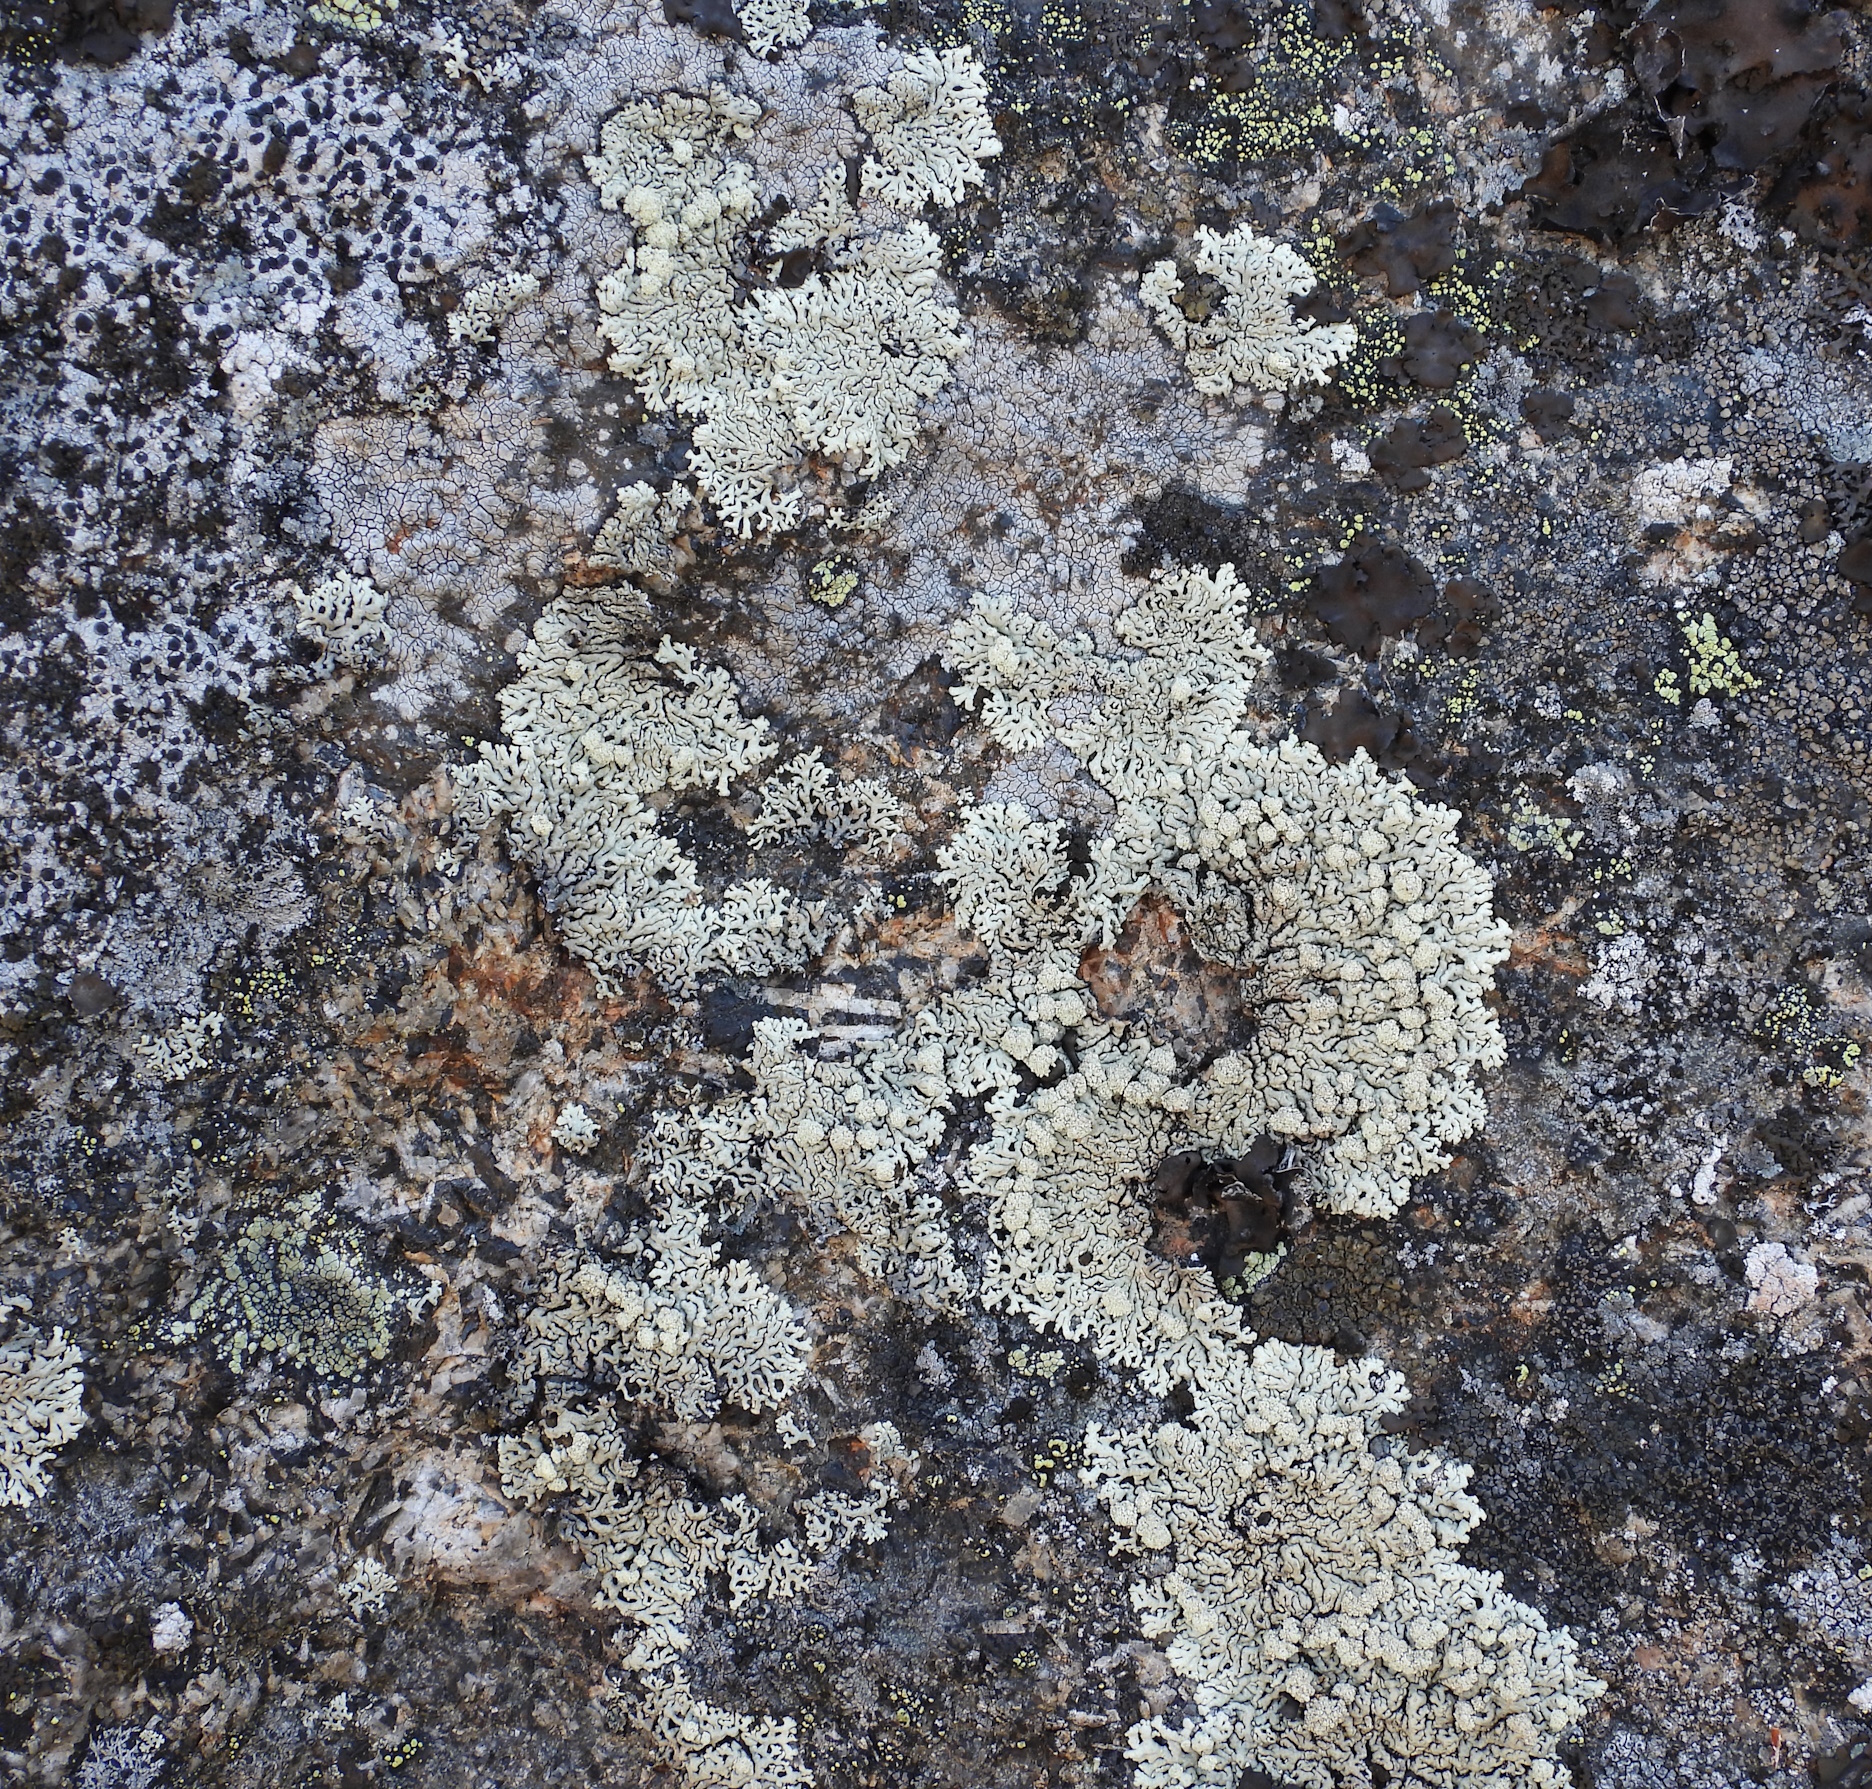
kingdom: Fungi
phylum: Ascomycota
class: Lecanoromycetes
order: Lecanorales
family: Parmeliaceae
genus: Arctoparmelia
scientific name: Arctoparmelia incurva
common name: Bent ring lichen
